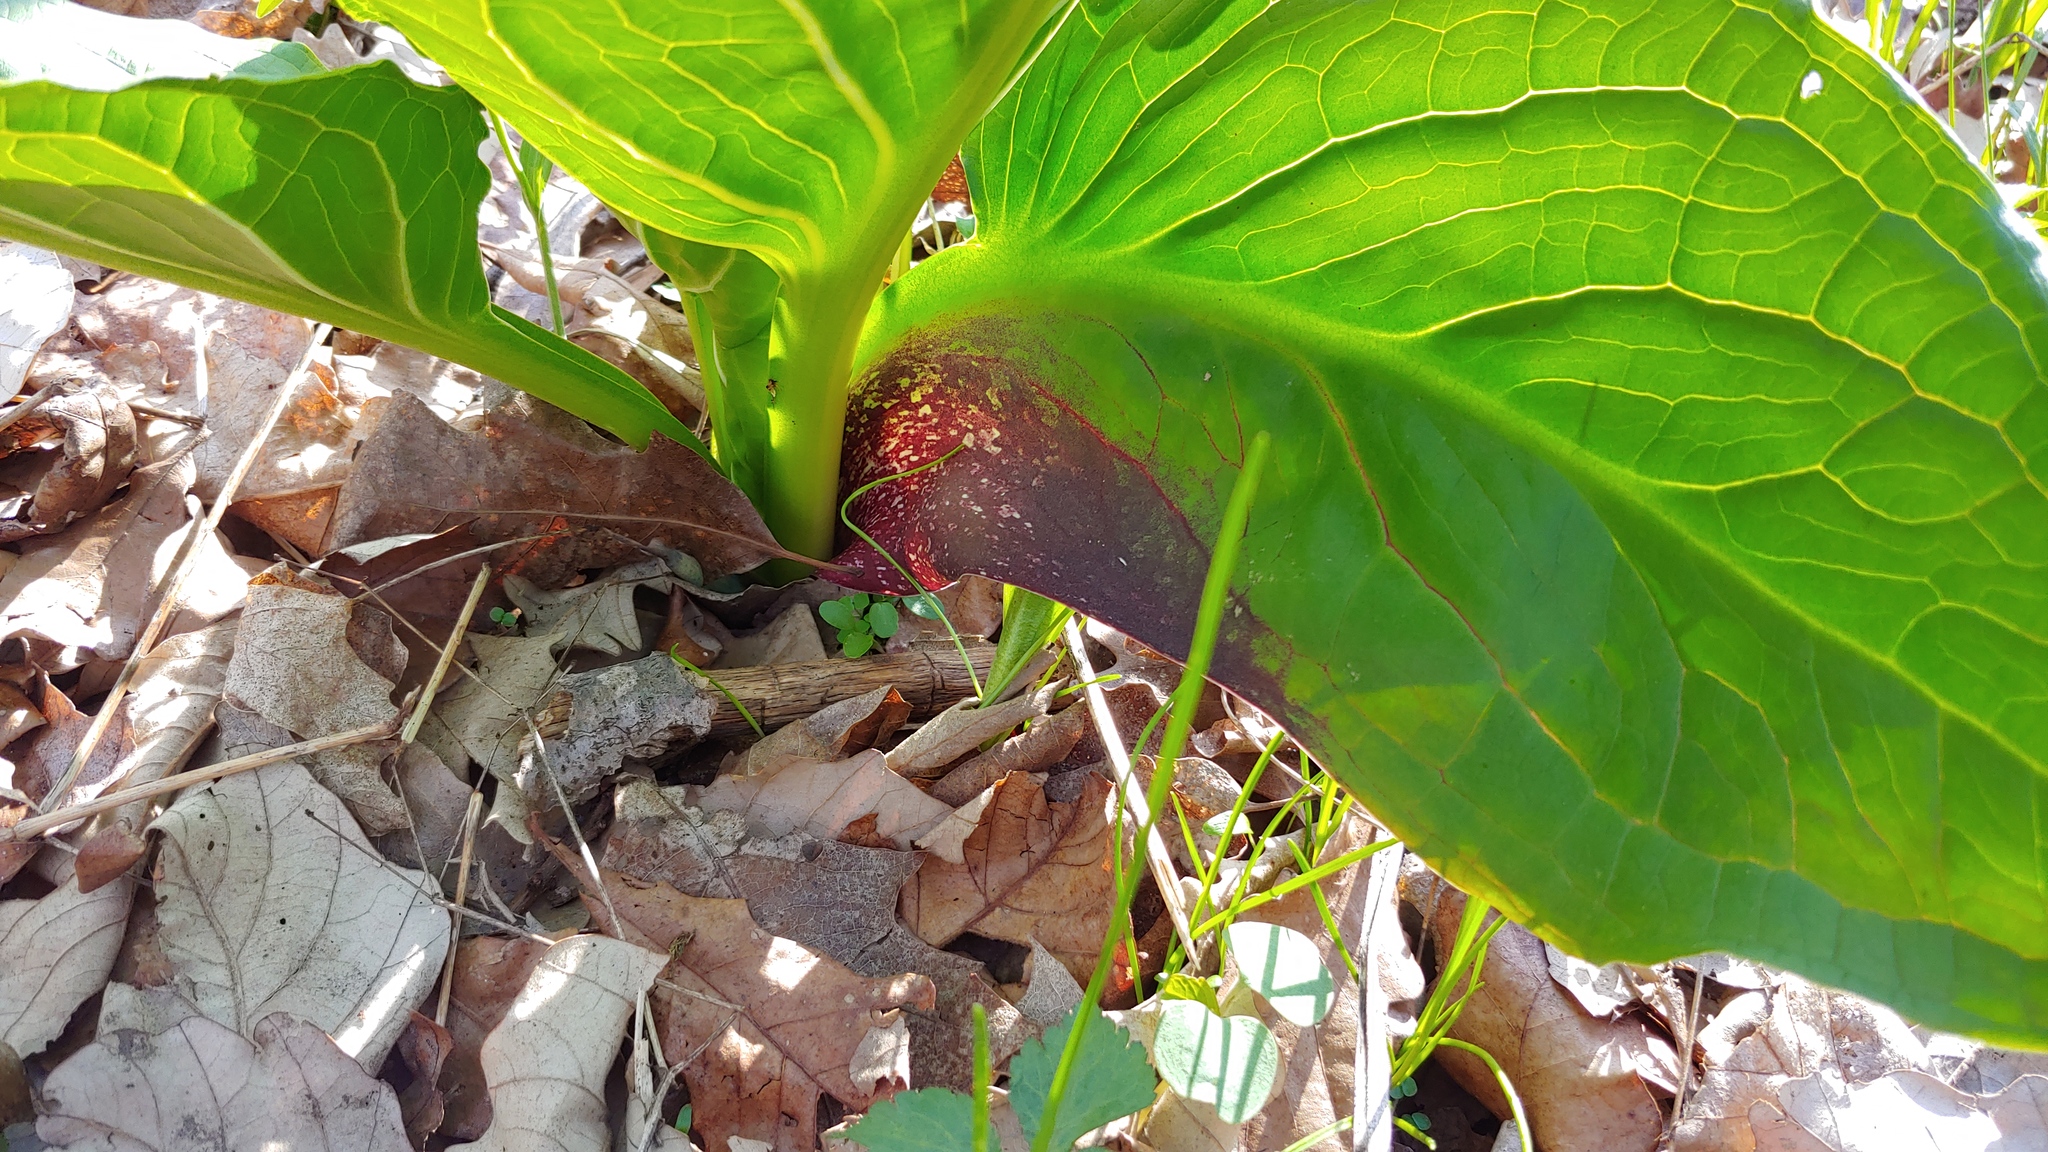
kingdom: Plantae
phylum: Tracheophyta
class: Liliopsida
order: Alismatales
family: Araceae
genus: Symplocarpus
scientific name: Symplocarpus foetidus
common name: Eastern skunk cabbage
